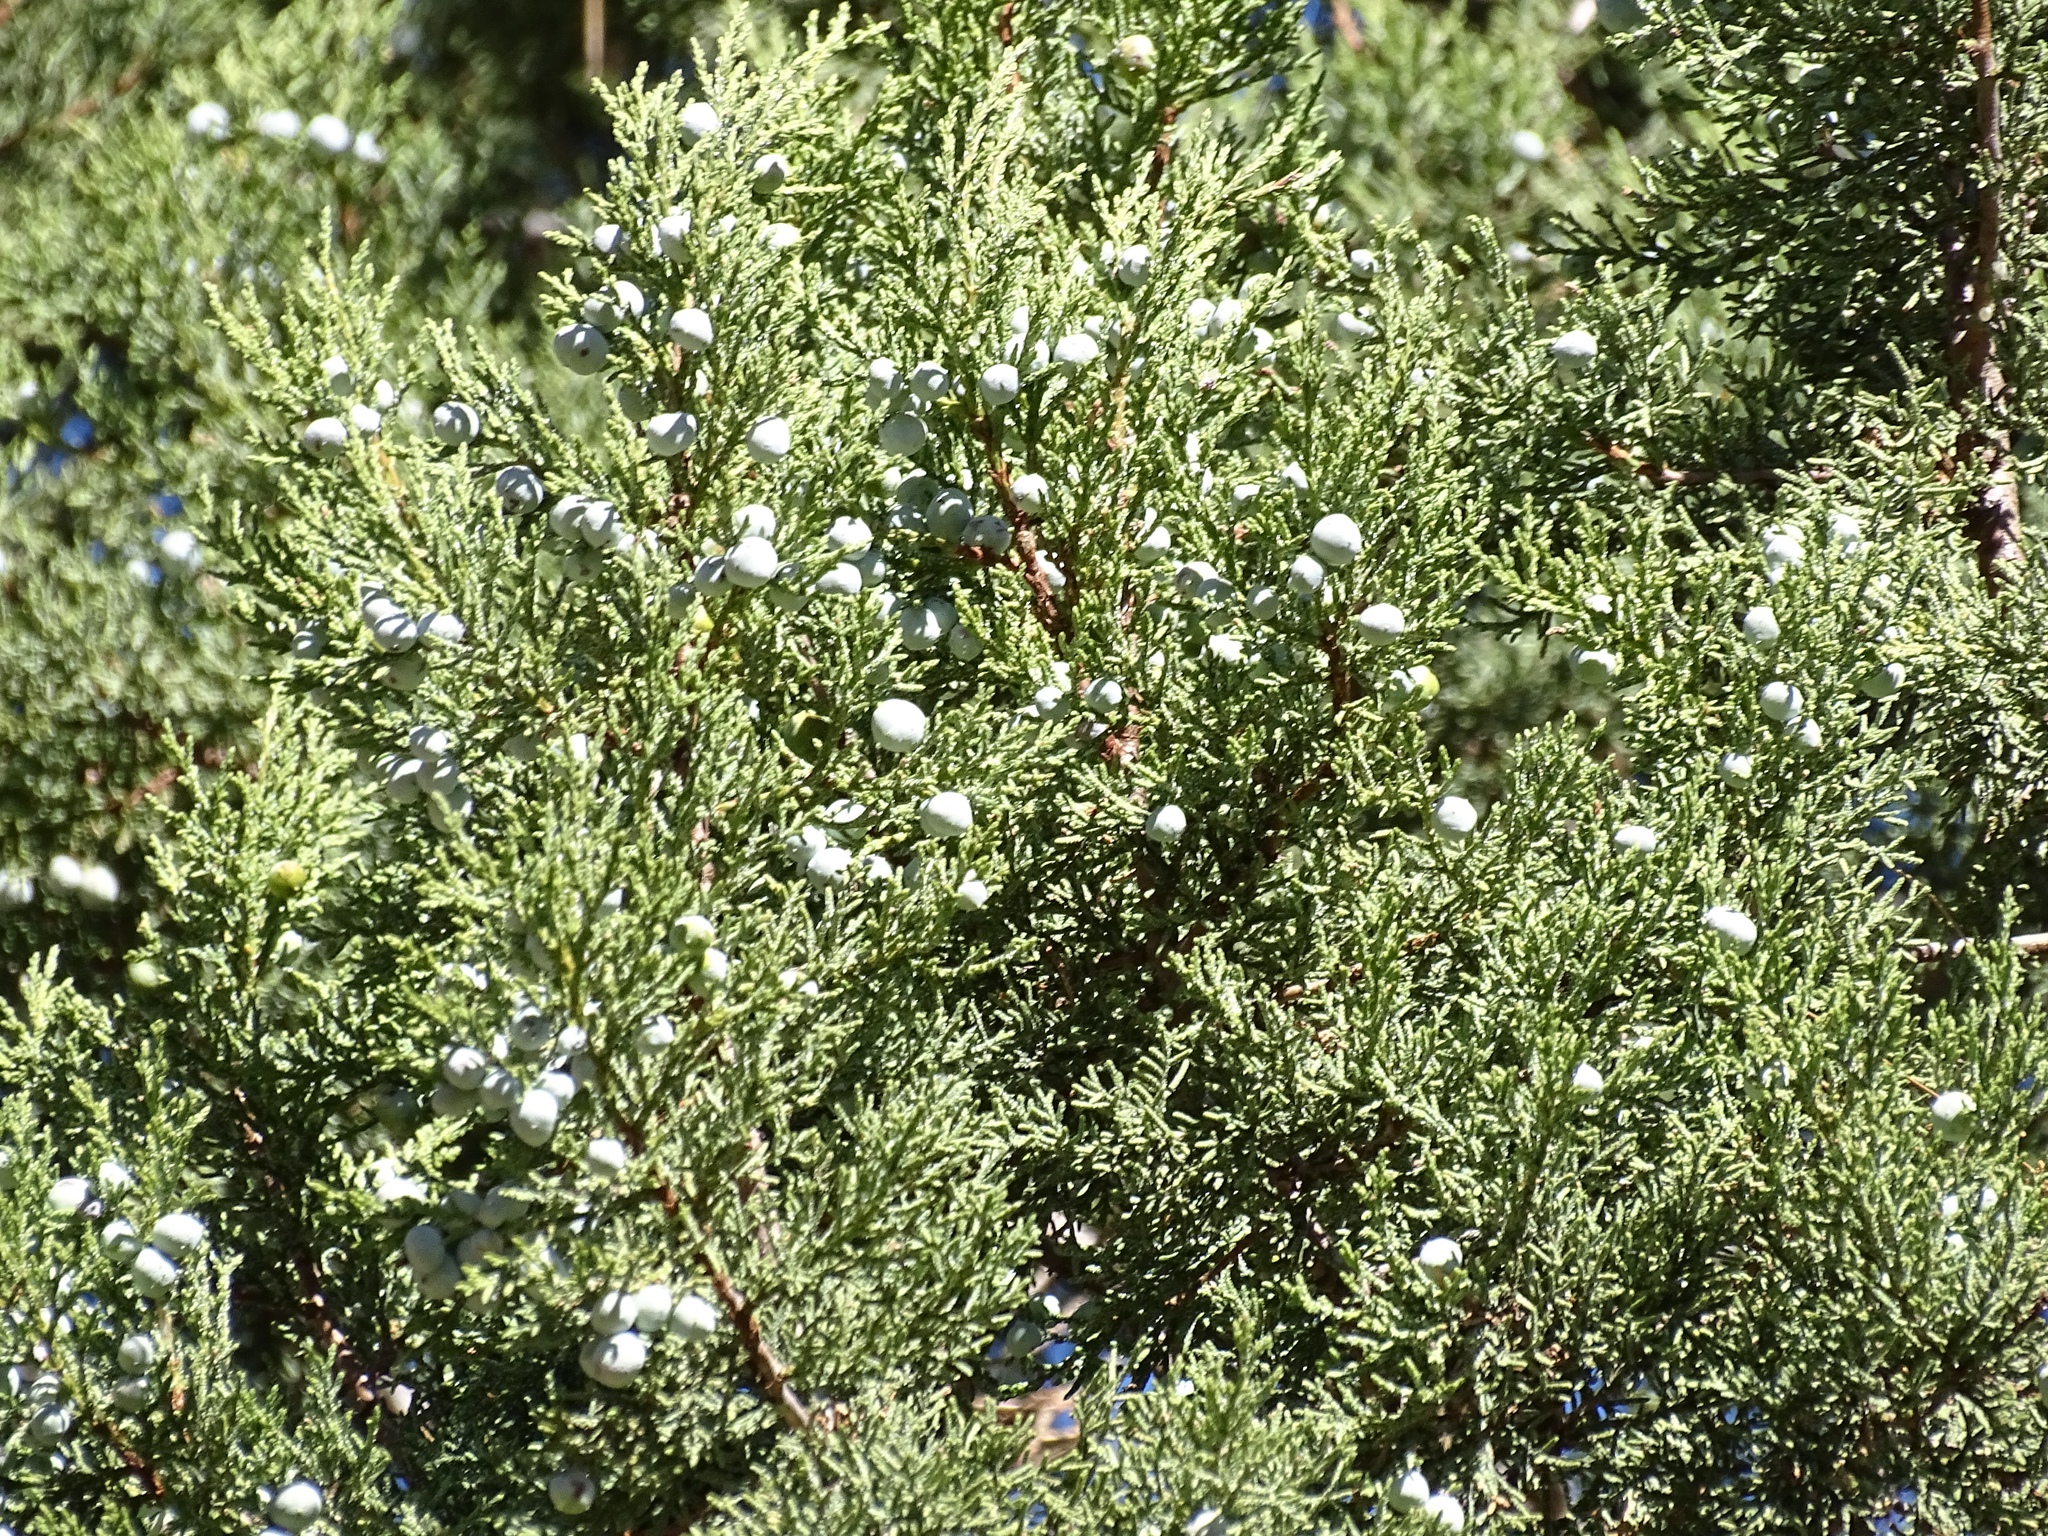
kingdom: Plantae
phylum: Tracheophyta
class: Pinopsida
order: Pinales
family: Cupressaceae
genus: Juniperus
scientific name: Juniperus deppeana
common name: Alligator juniper
